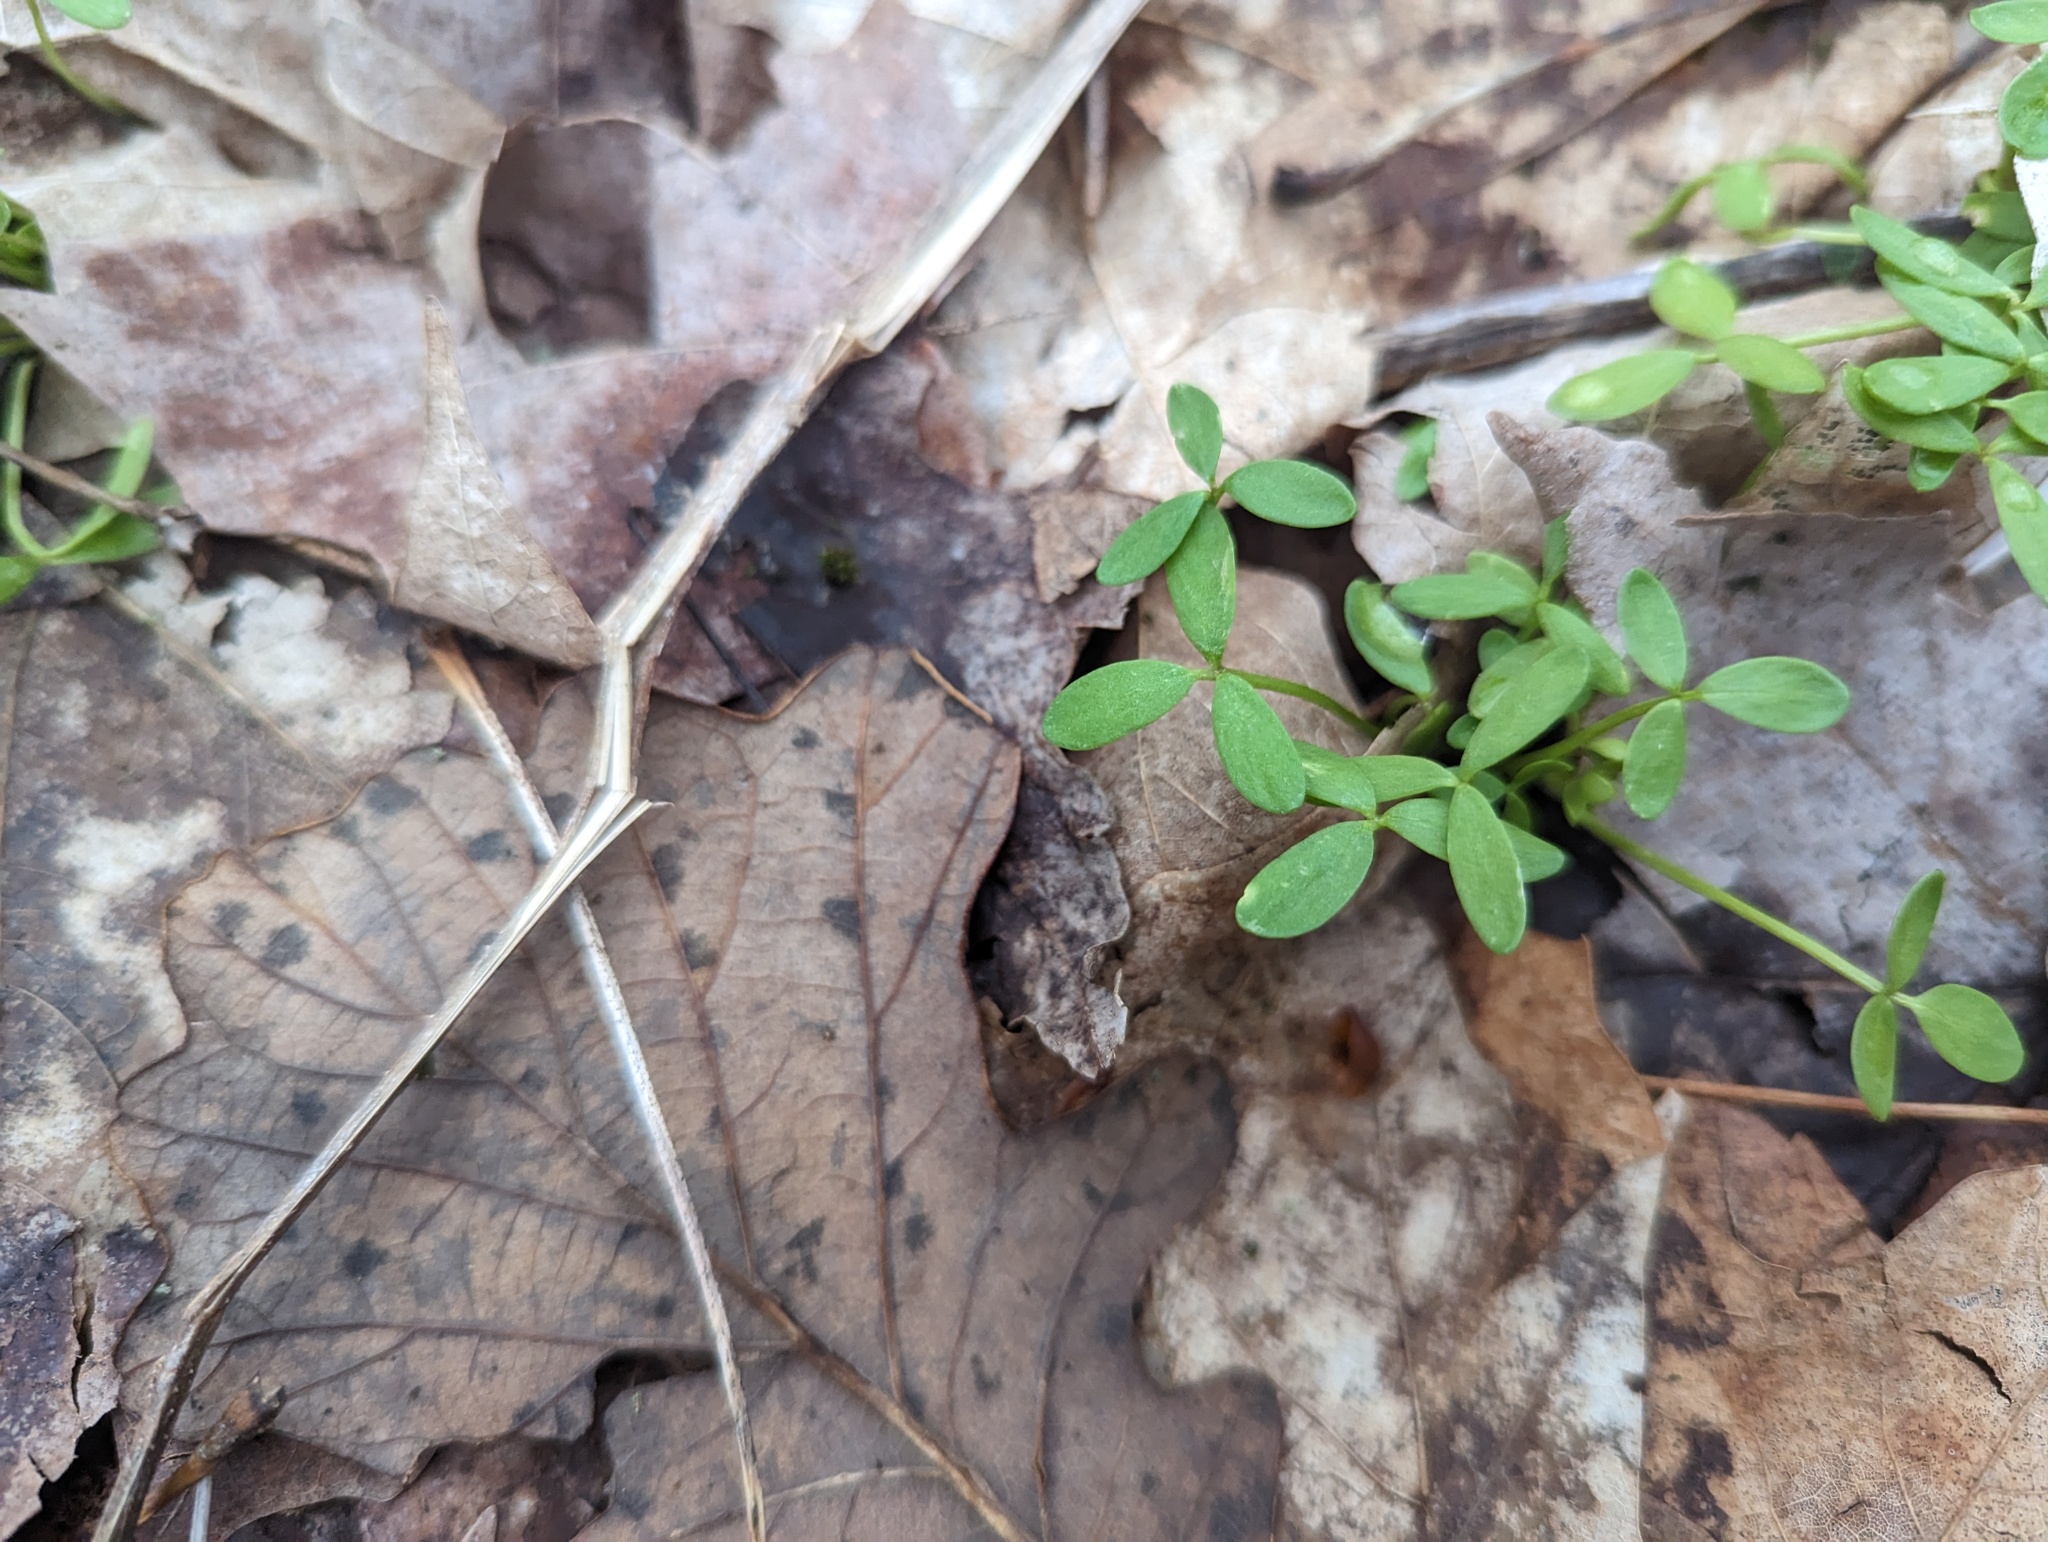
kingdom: Plantae
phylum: Tracheophyta
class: Magnoliopsida
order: Brassicales
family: Limnanthaceae
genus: Floerkea
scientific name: Floerkea proserpinacoides
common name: False mermaid
